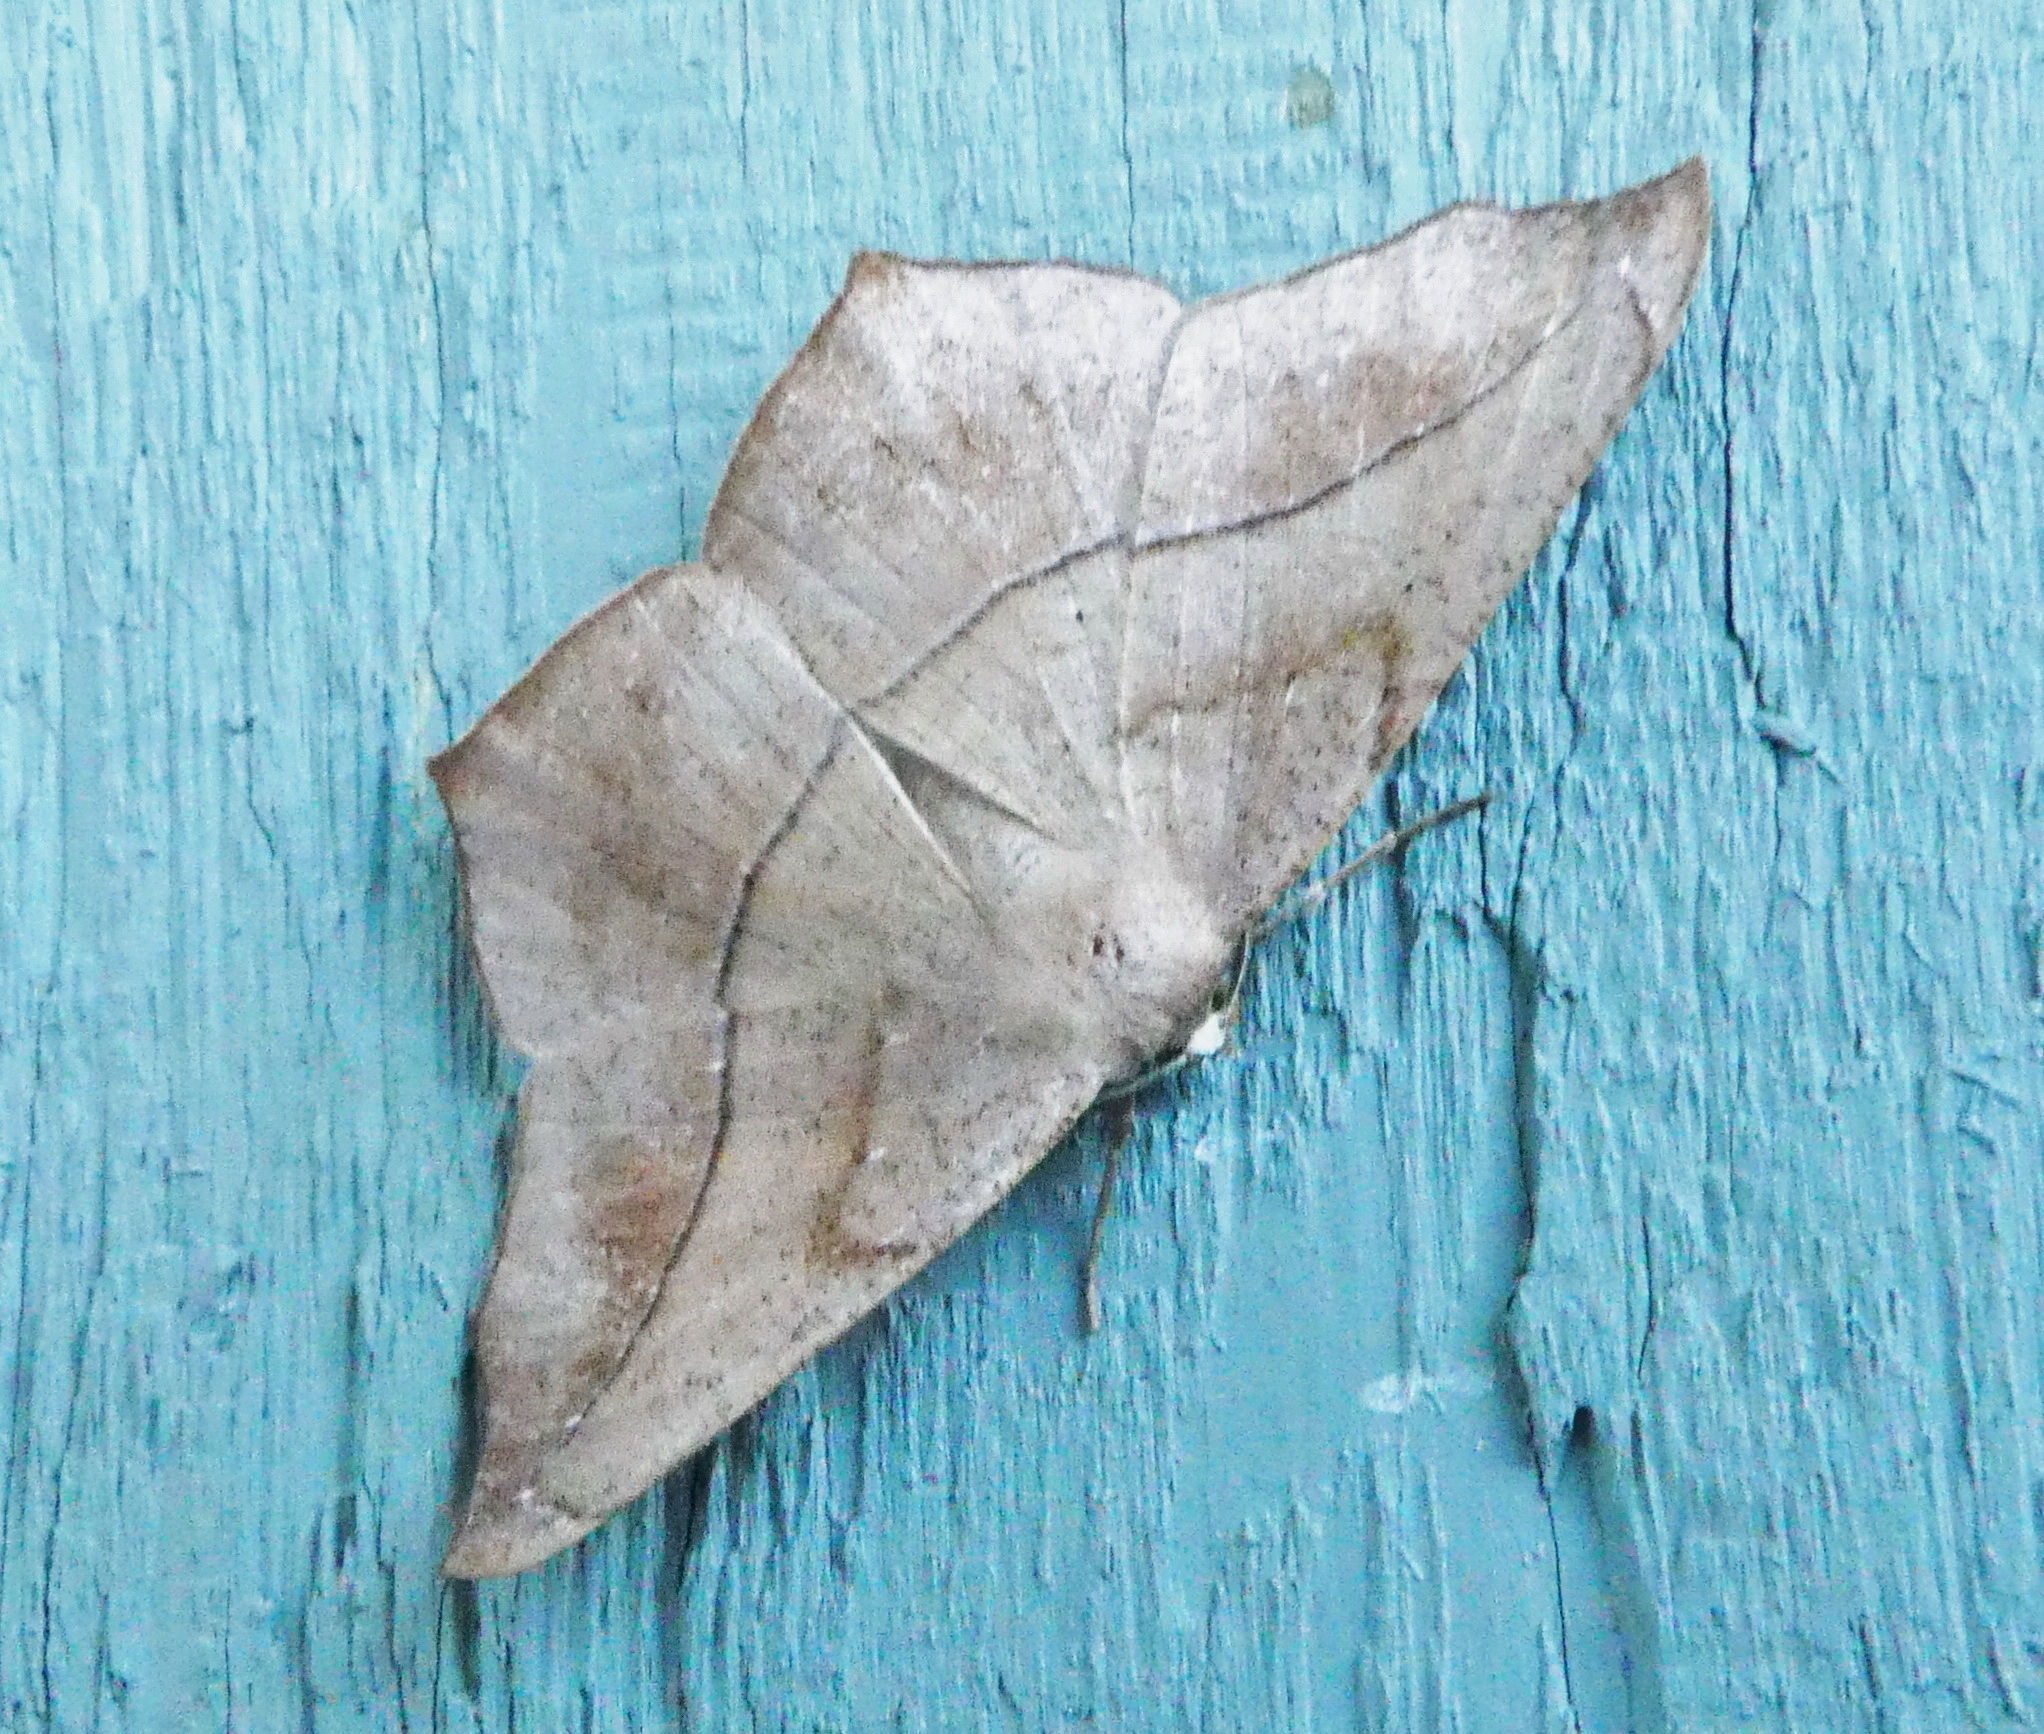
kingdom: Animalia
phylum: Arthropoda
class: Insecta
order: Lepidoptera
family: Geometridae
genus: Prochoerodes
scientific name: Prochoerodes lineola
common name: Large maple spanworm
